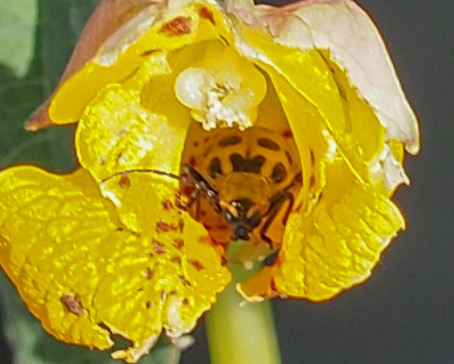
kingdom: Animalia
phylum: Arthropoda
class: Insecta
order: Coleoptera
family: Chrysomelidae
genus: Diabrotica
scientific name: Diabrotica undecimpunctata
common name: Spotted cucumber beetle
